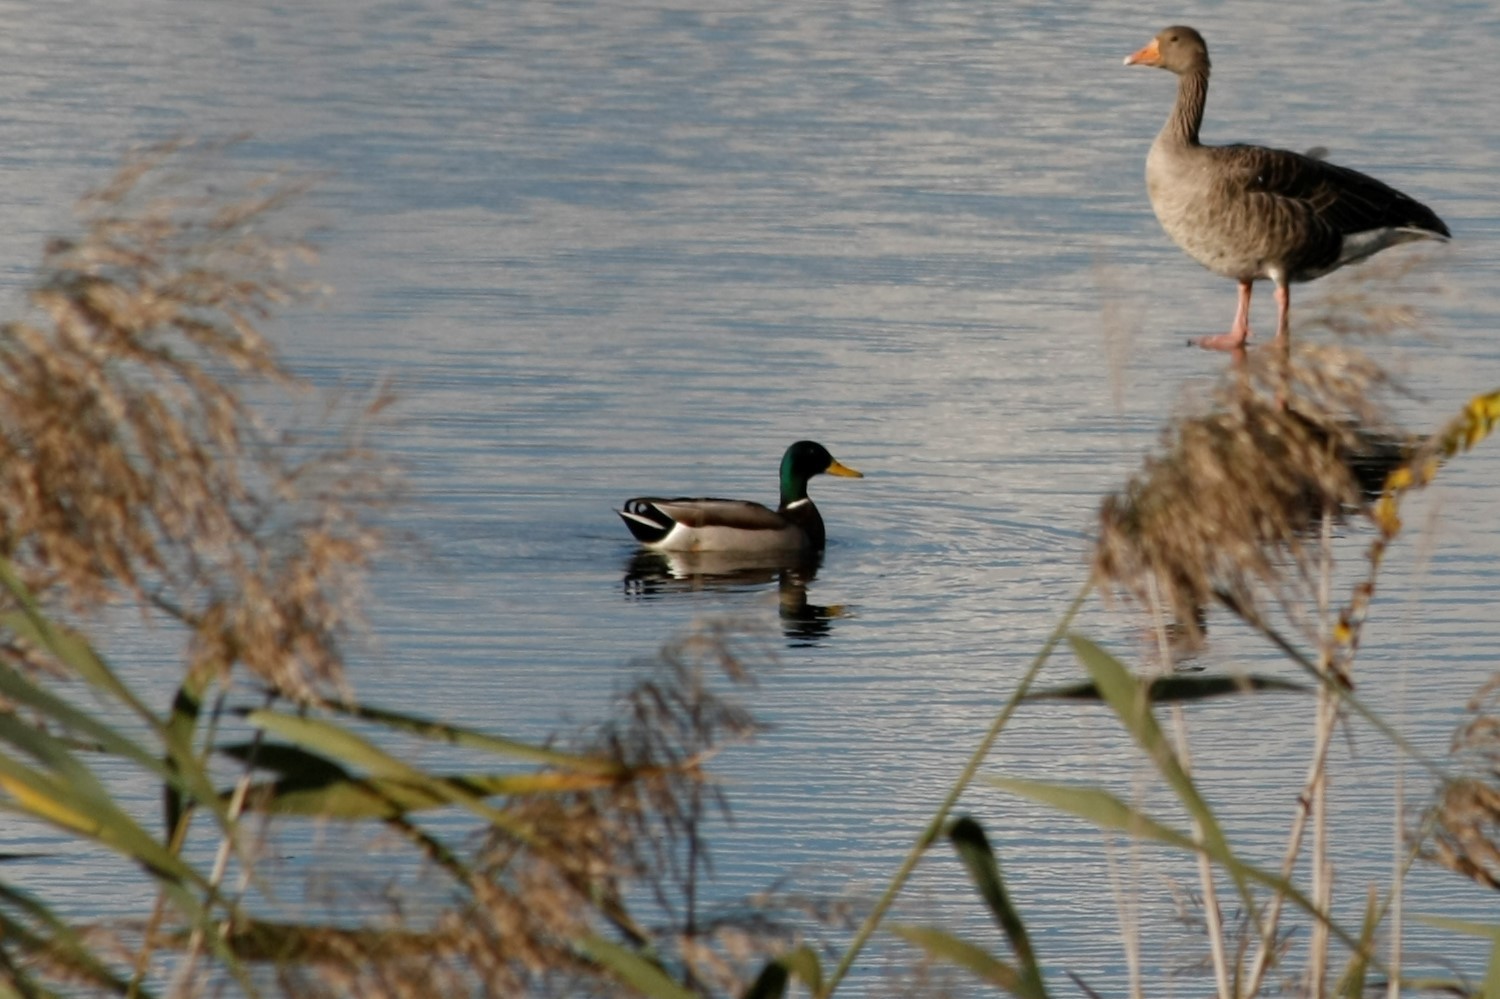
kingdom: Animalia
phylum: Chordata
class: Aves
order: Anseriformes
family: Anatidae
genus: Anas
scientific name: Anas platyrhynchos
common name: Mallard
